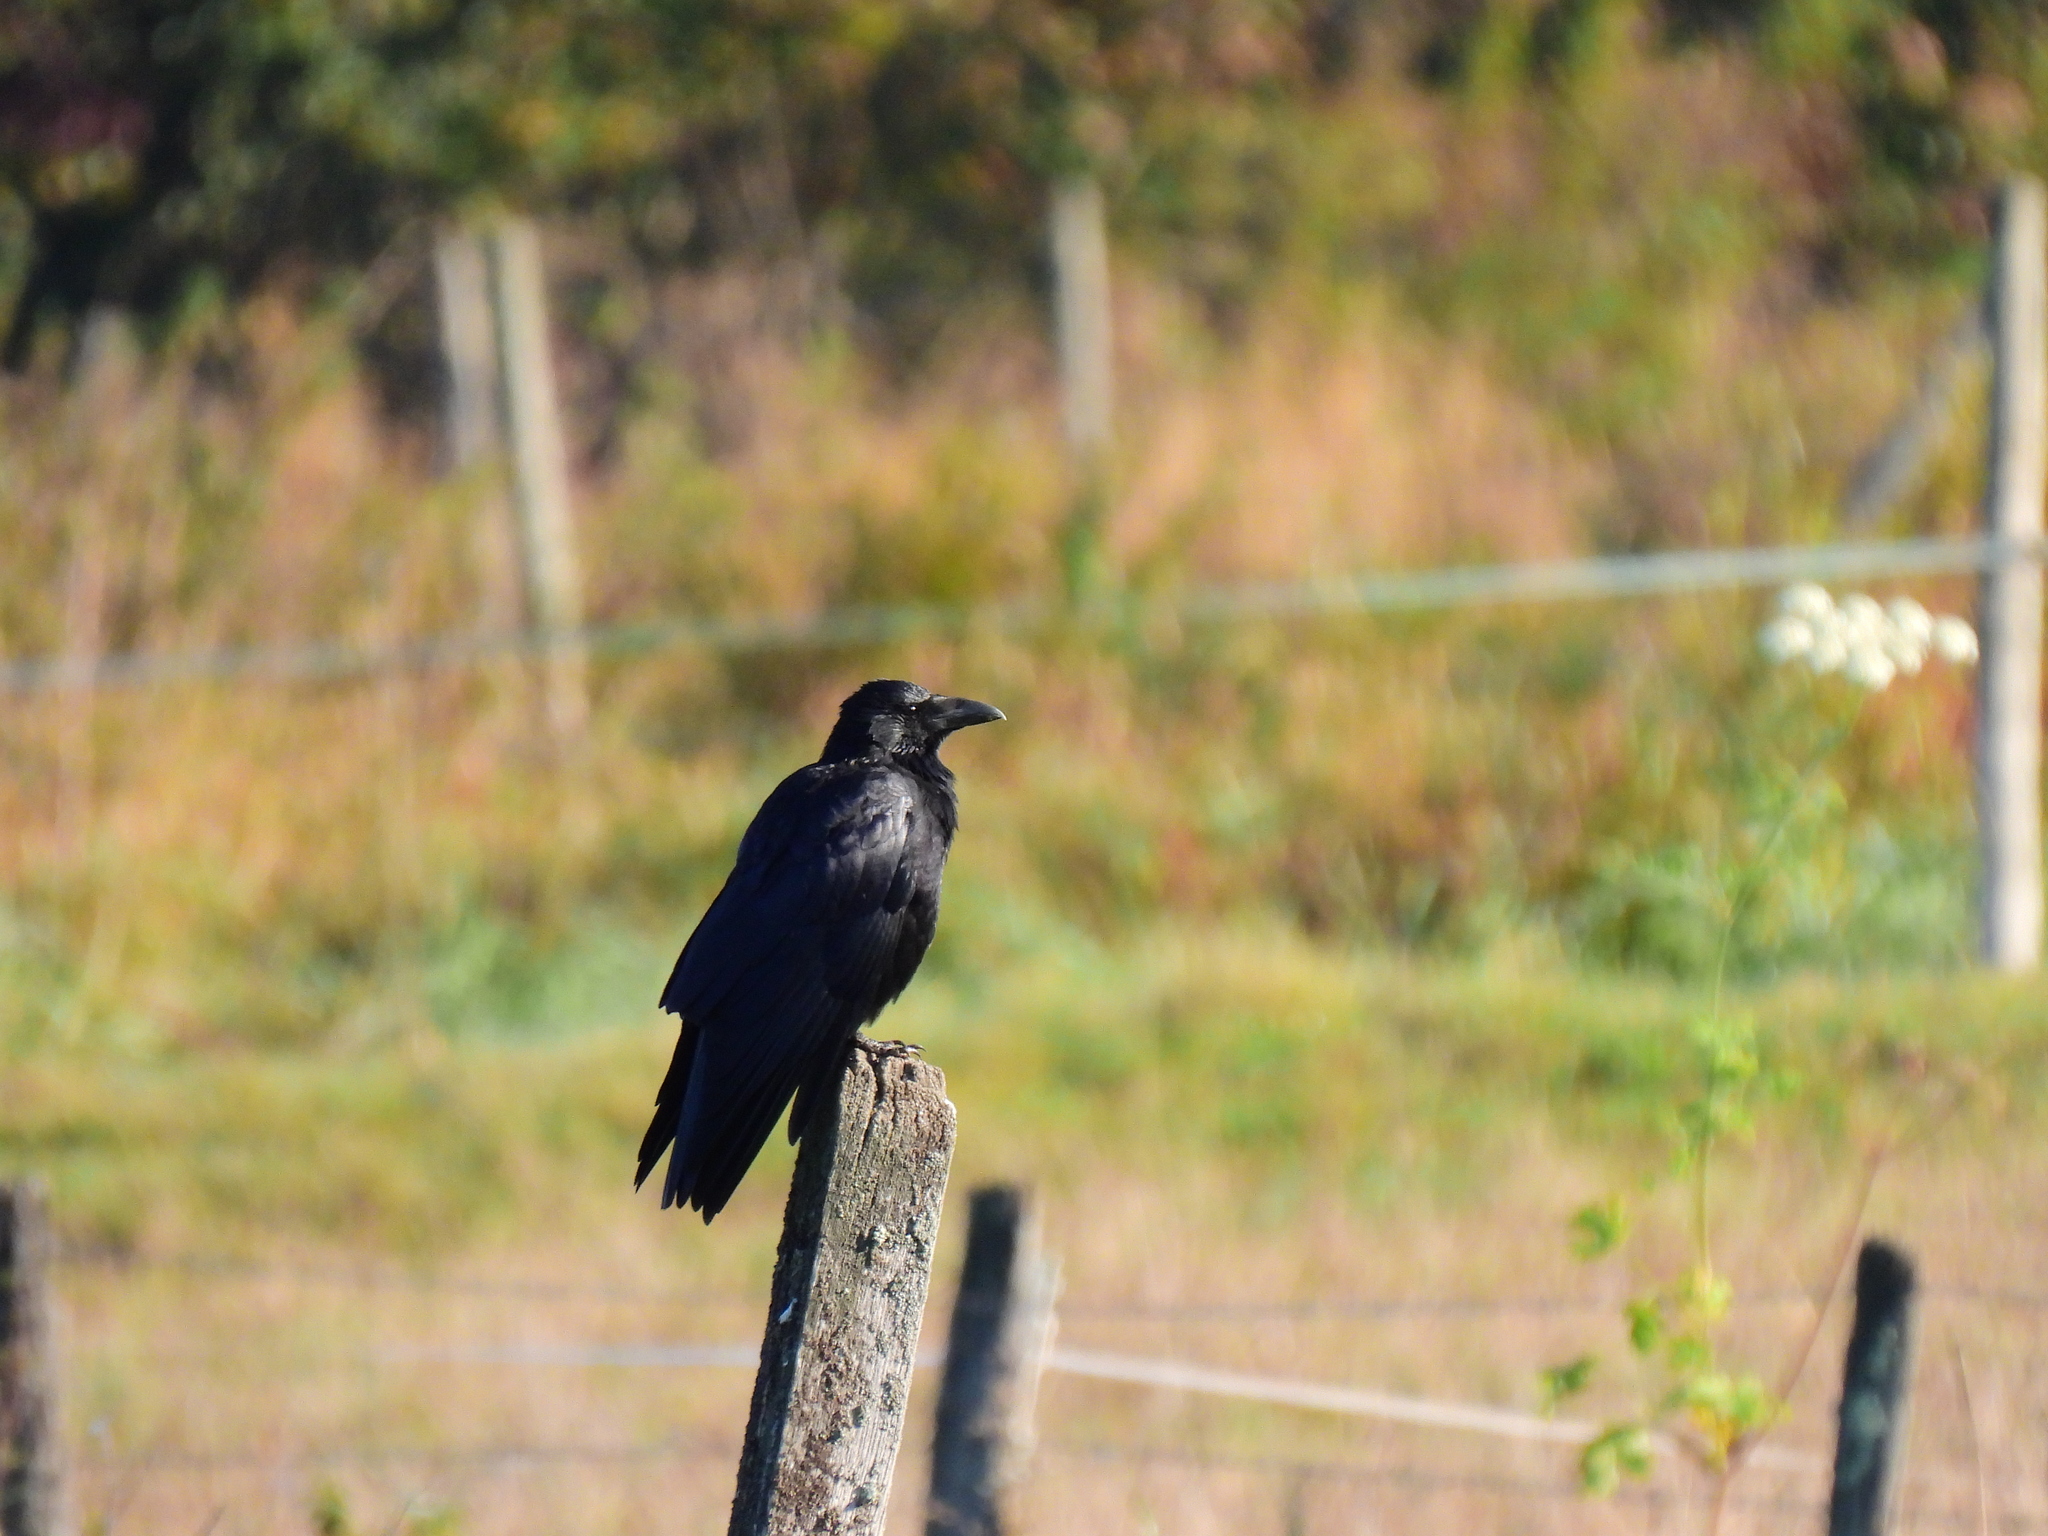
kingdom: Animalia
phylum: Chordata
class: Aves
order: Passeriformes
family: Corvidae
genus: Corvus
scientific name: Corvus corone
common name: Carrion crow
